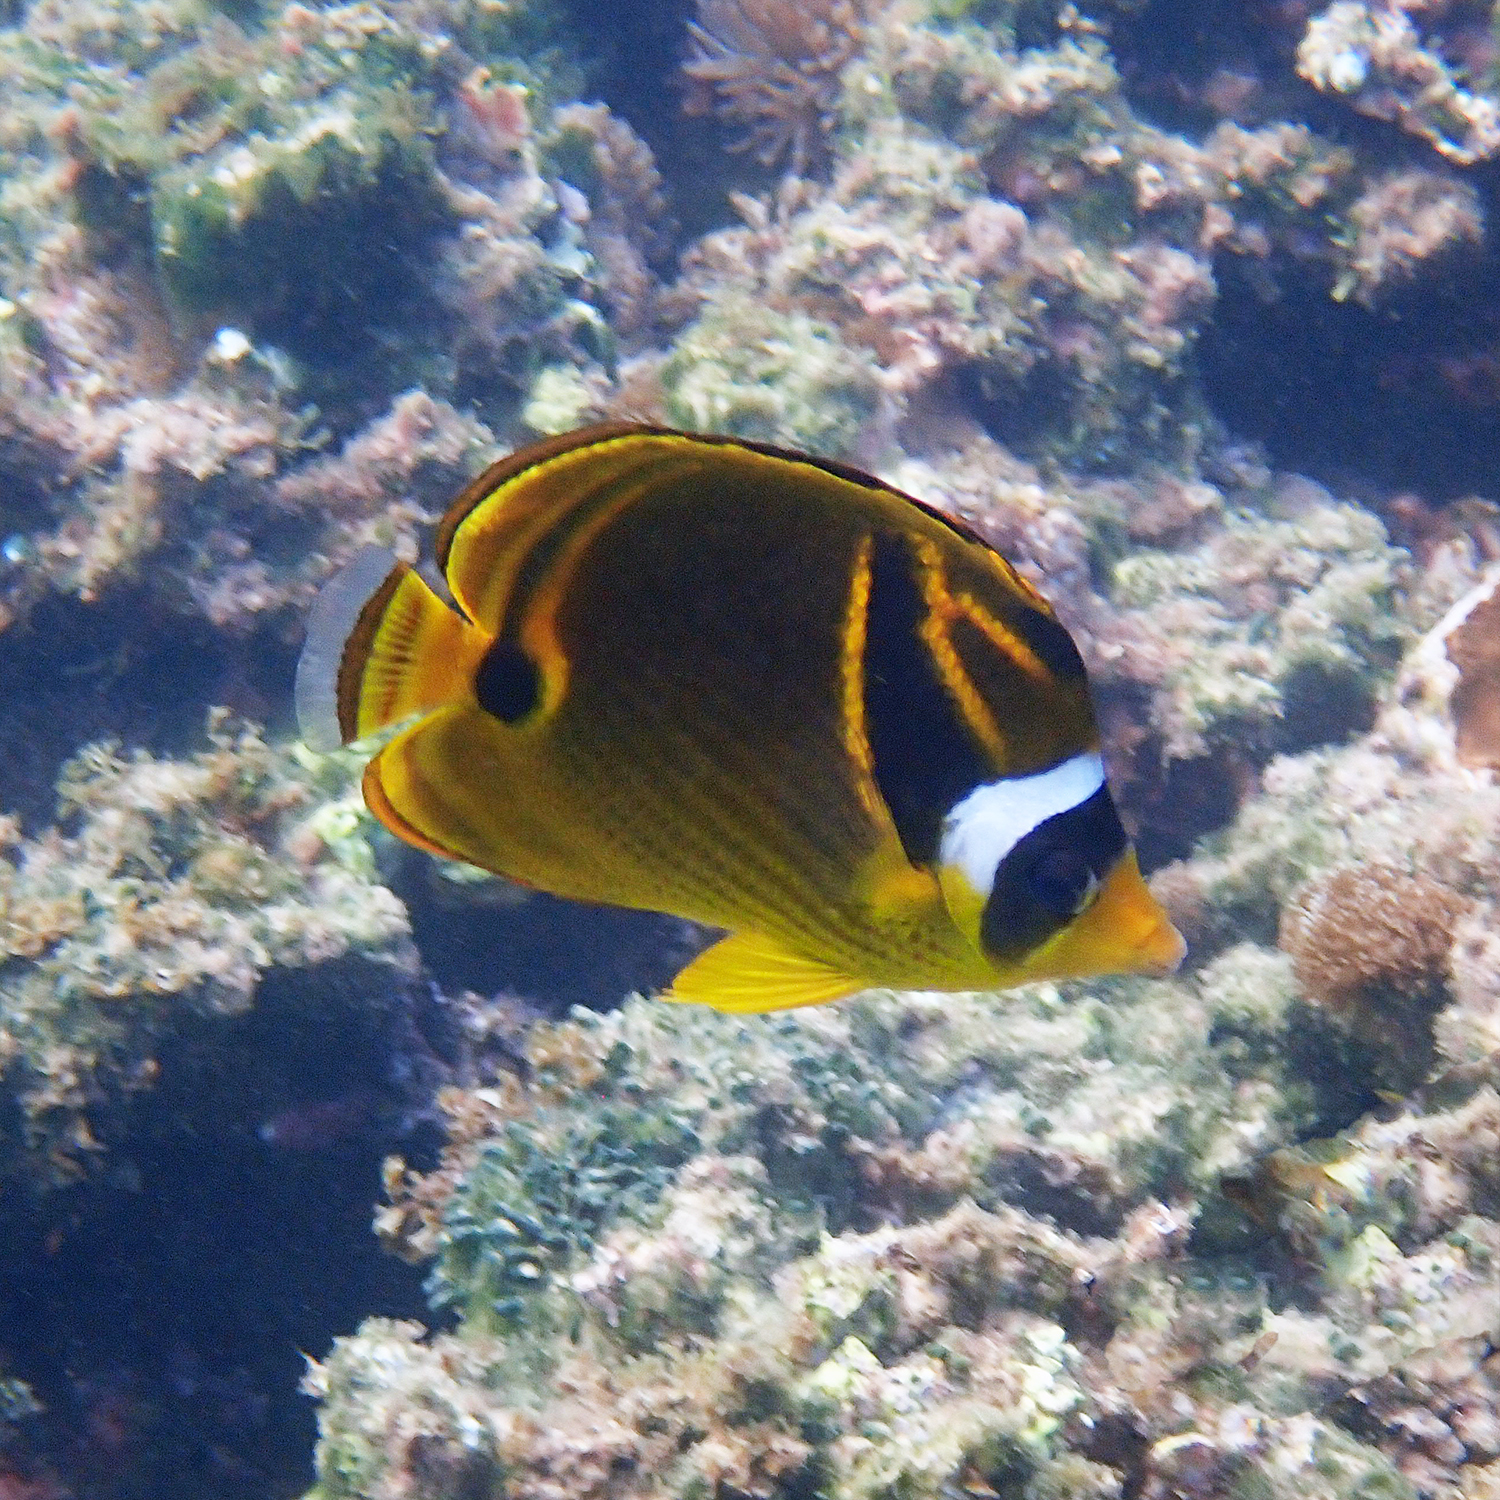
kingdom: Animalia
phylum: Chordata
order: Perciformes
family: Chaetodontidae
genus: Chaetodon
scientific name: Chaetodon lunula
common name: Raccoon butterflyfish
